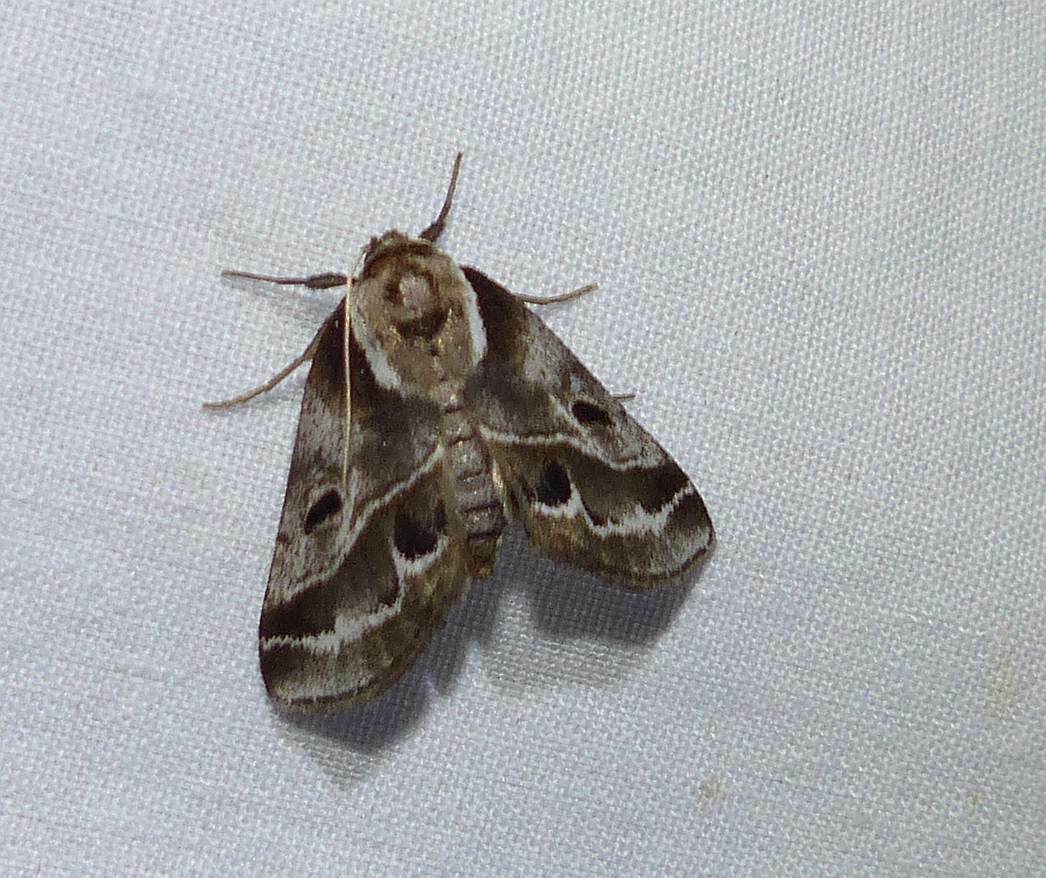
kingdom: Animalia
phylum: Arthropoda
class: Insecta
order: Lepidoptera
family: Nolidae
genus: Baileya
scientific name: Baileya doubledayi
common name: Doubleday's baileya moth
